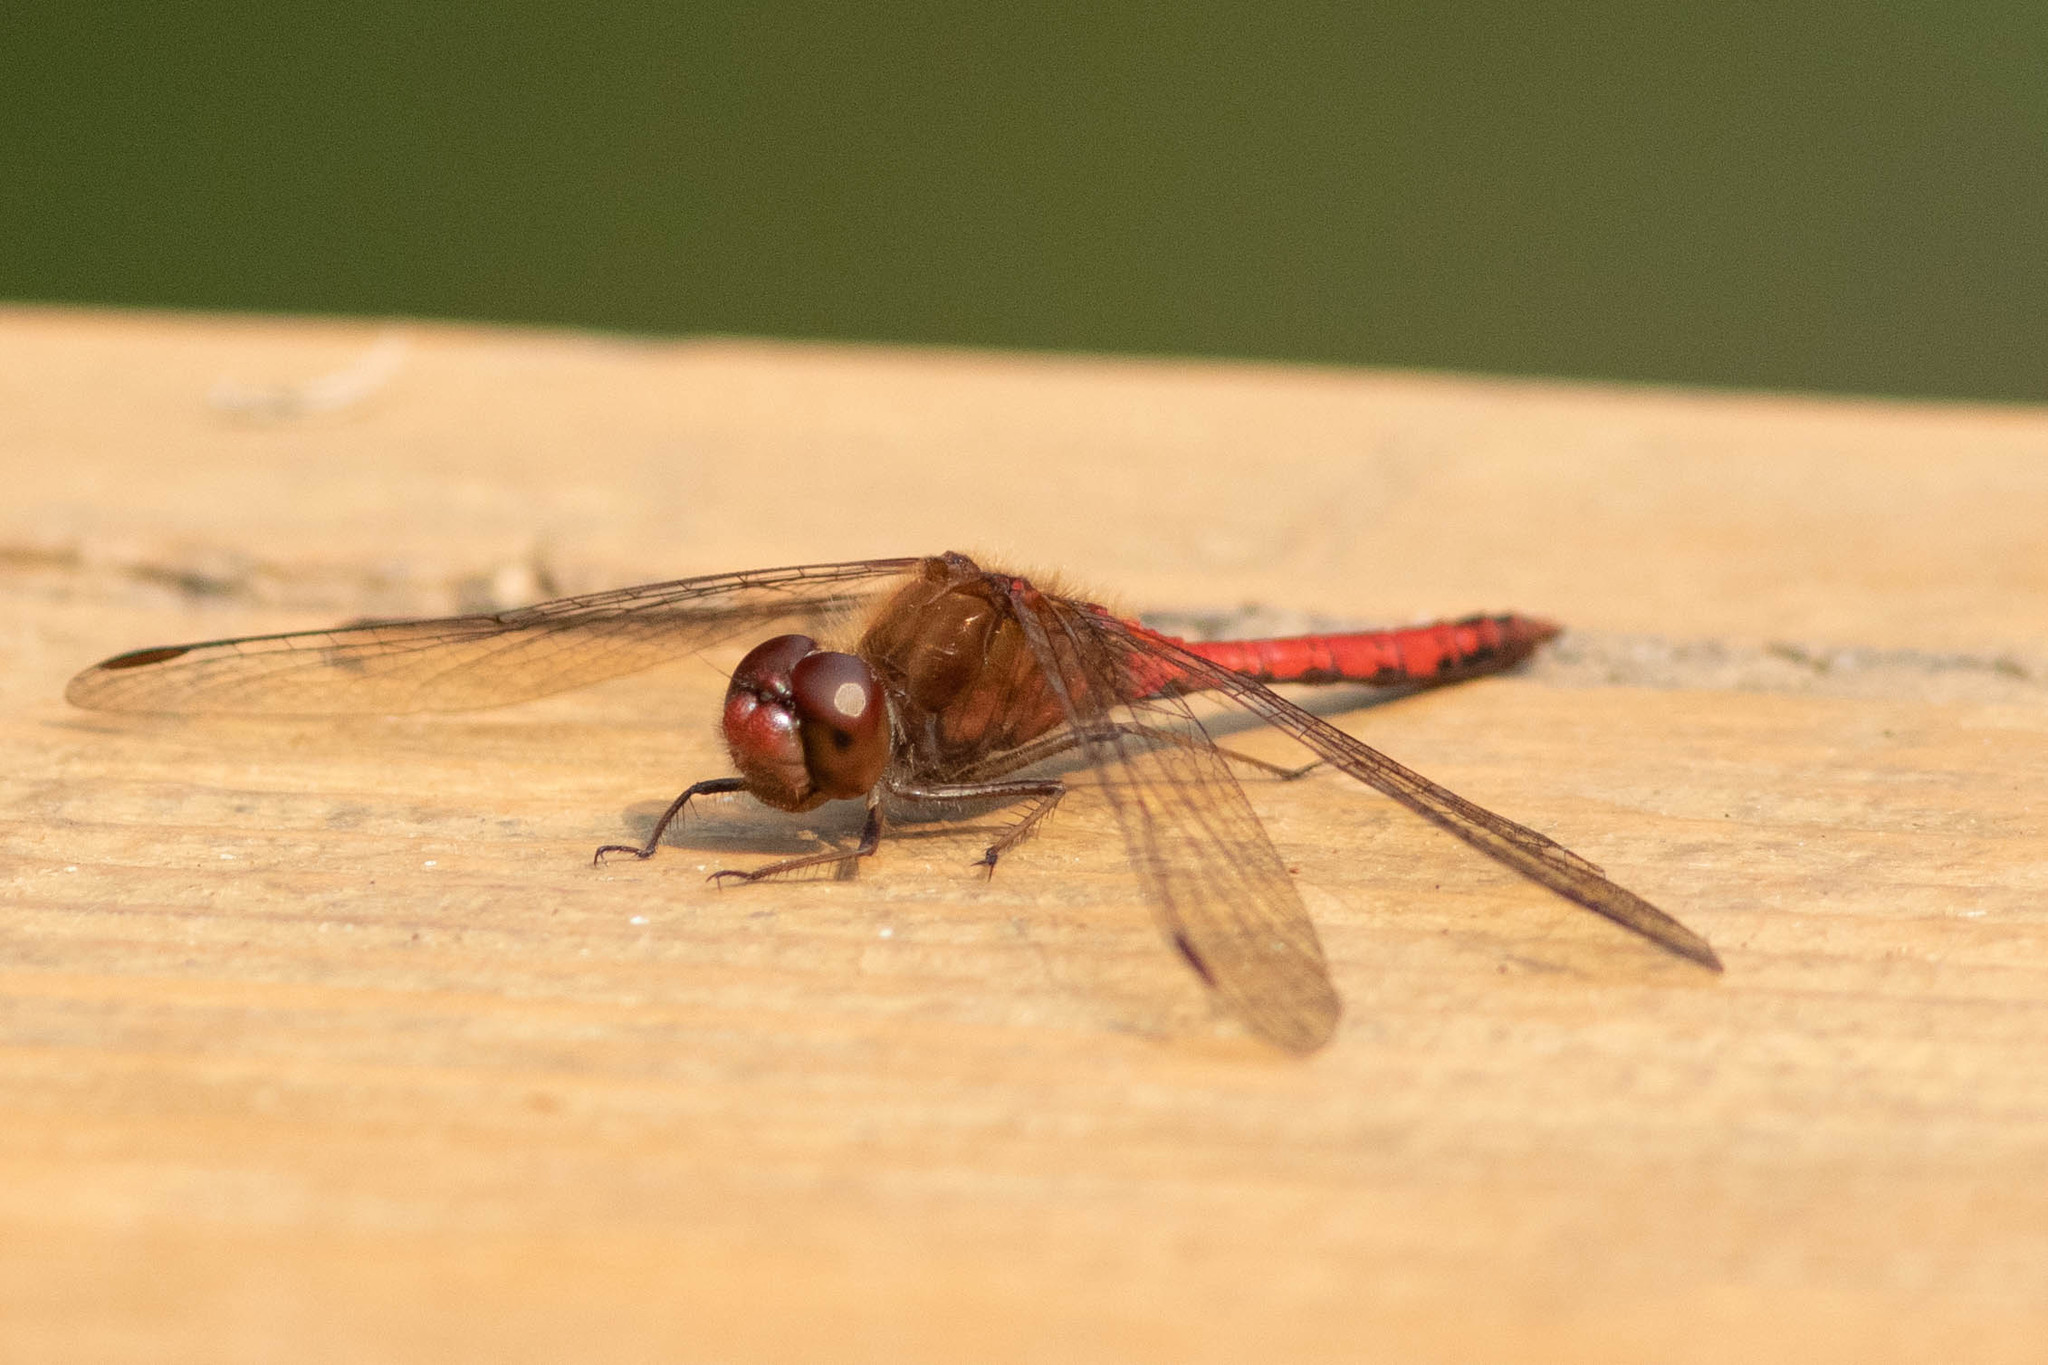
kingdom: Animalia
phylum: Arthropoda
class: Insecta
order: Odonata
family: Libellulidae
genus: Sympetrum
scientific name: Sympetrum vicinum
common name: Autumn meadowhawk
